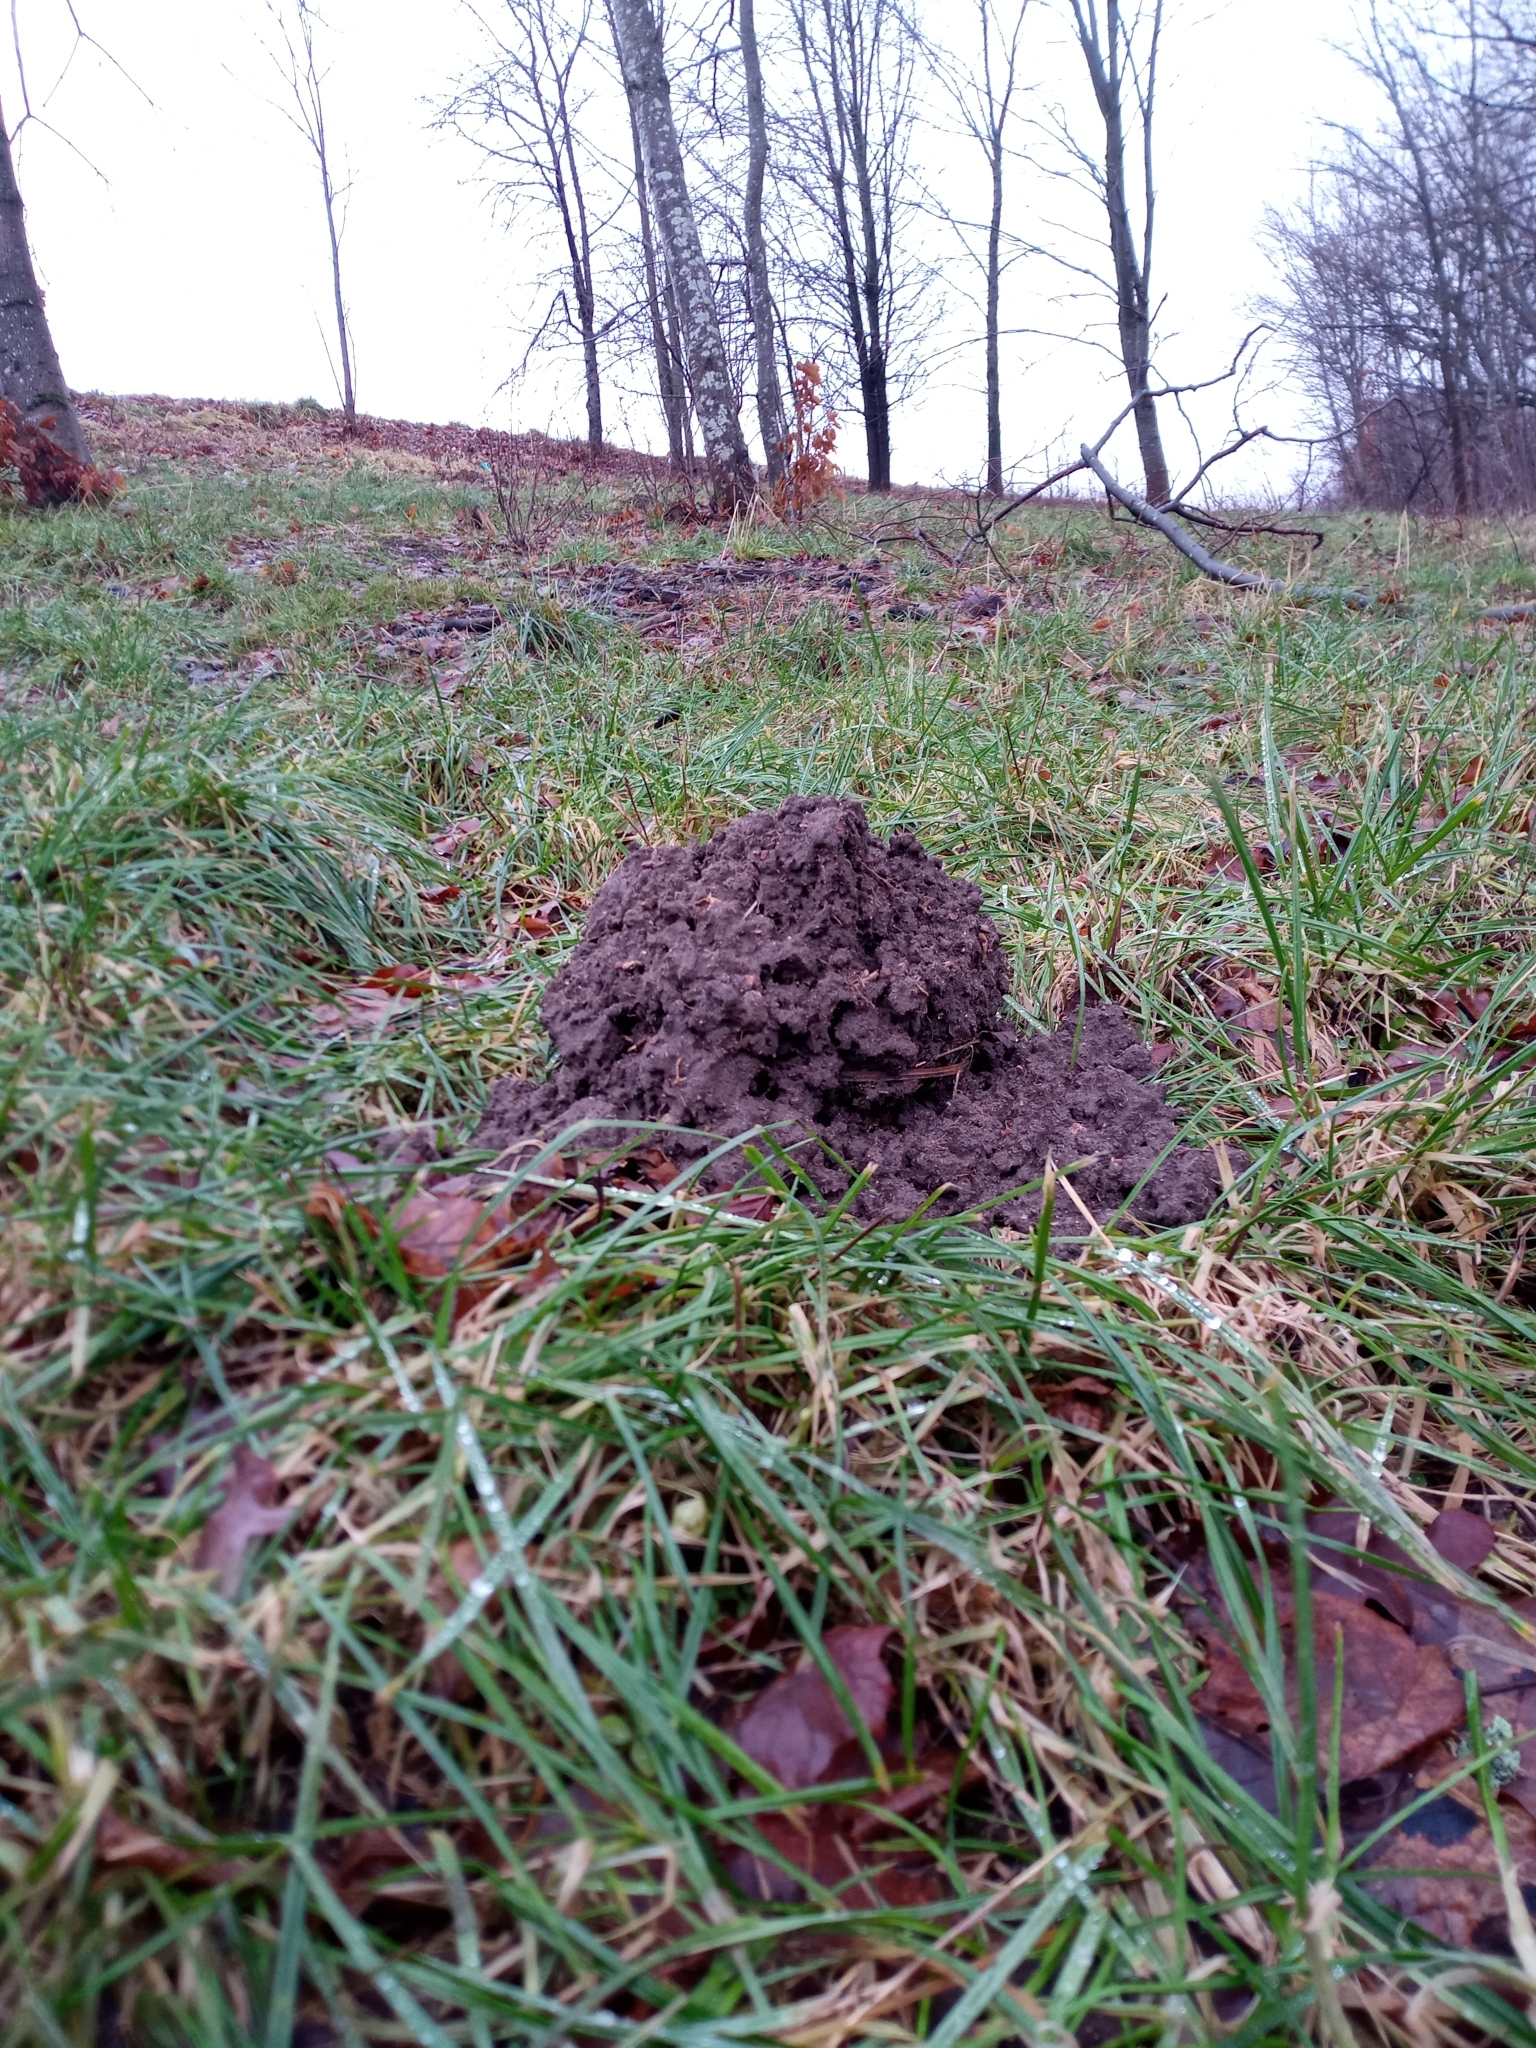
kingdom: Animalia
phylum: Chordata
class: Mammalia
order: Soricomorpha
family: Talpidae
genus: Talpa
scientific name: Talpa europaea
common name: European mole
